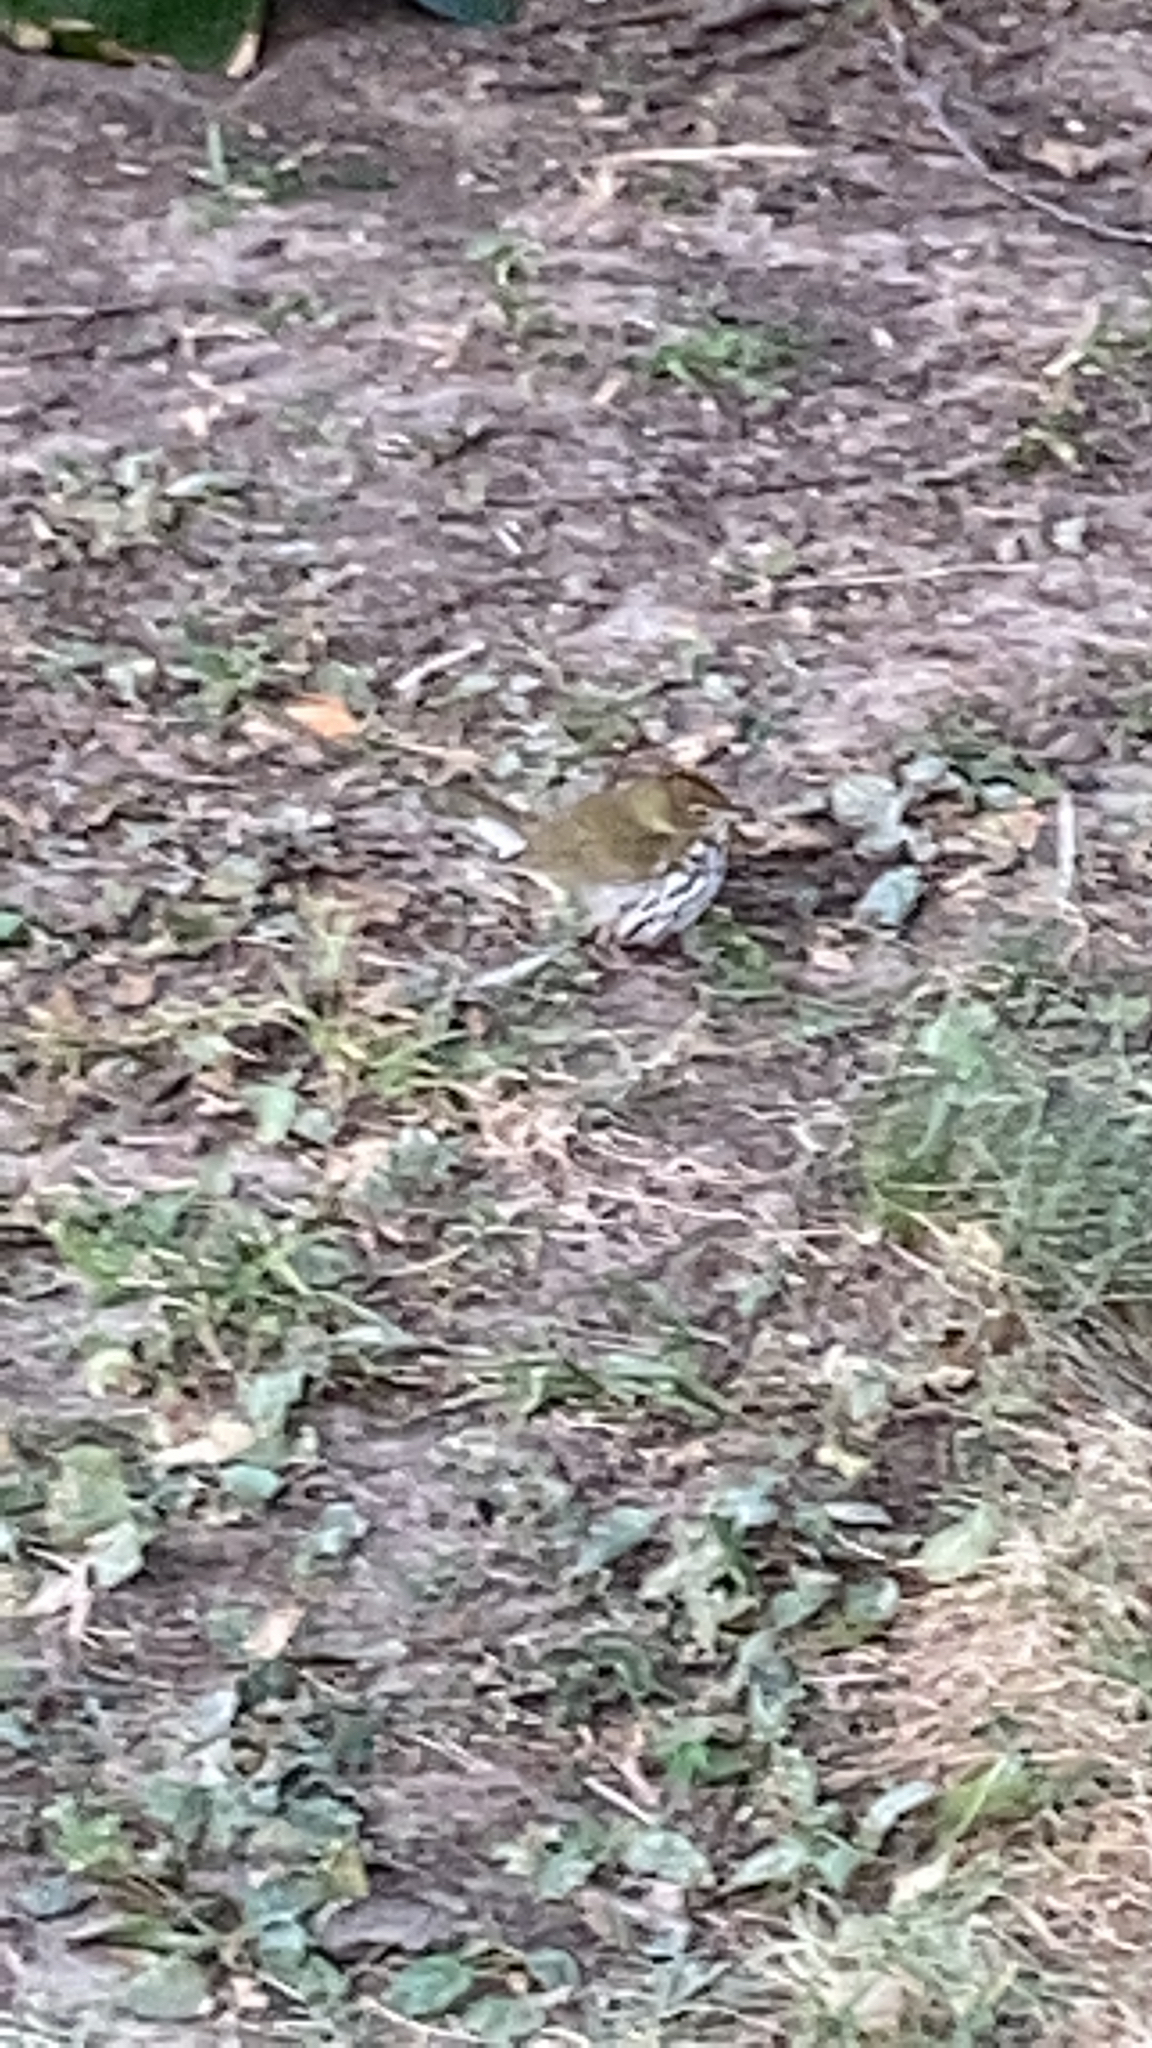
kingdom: Animalia
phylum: Chordata
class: Aves
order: Passeriformes
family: Parulidae
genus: Seiurus
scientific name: Seiurus aurocapilla
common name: Ovenbird
